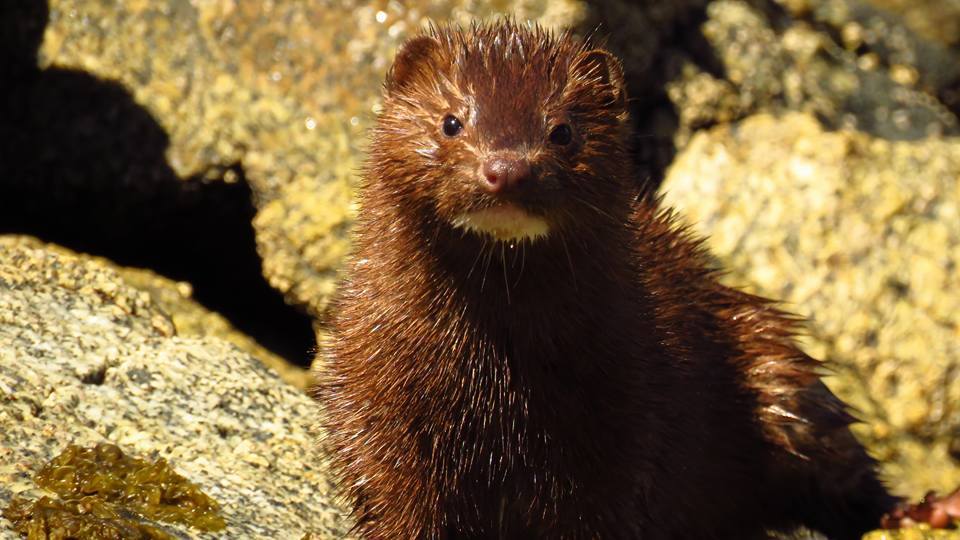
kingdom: Animalia
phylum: Chordata
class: Mammalia
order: Carnivora
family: Mustelidae
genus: Mustela
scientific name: Mustela
